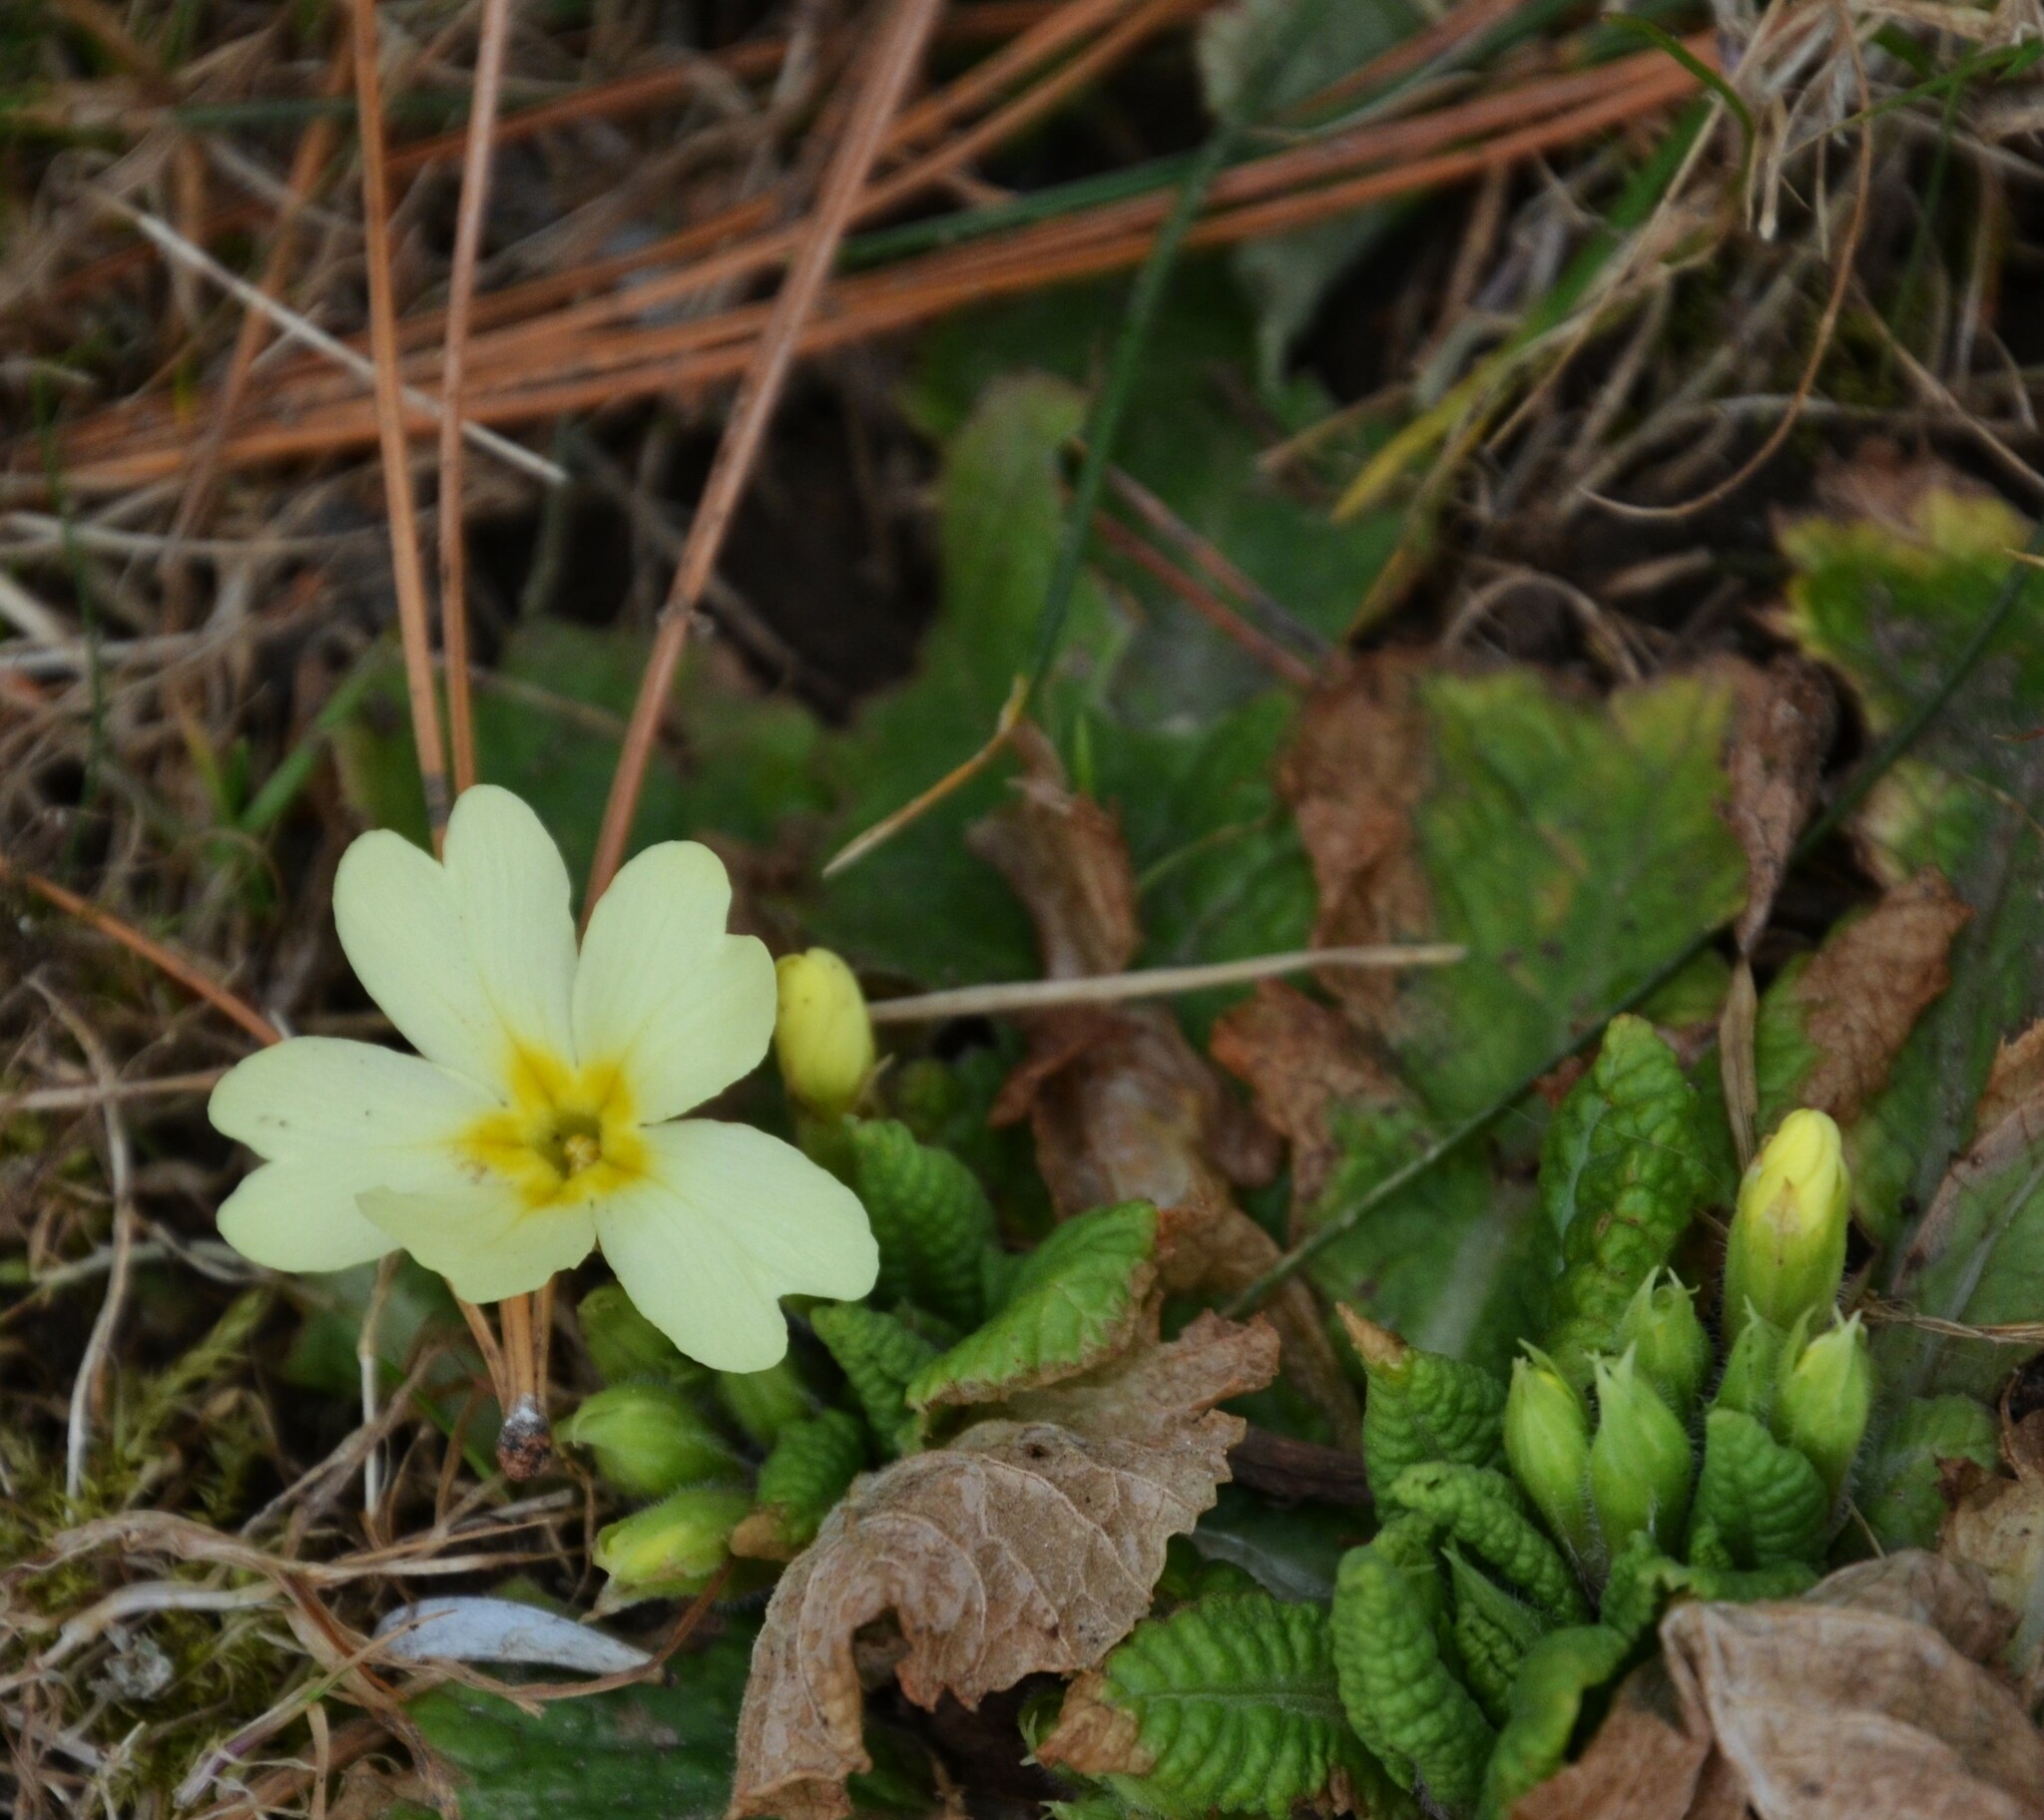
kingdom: Plantae
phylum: Tracheophyta
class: Magnoliopsida
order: Ericales
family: Primulaceae
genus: Primula
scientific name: Primula vulgaris
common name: Primrose
